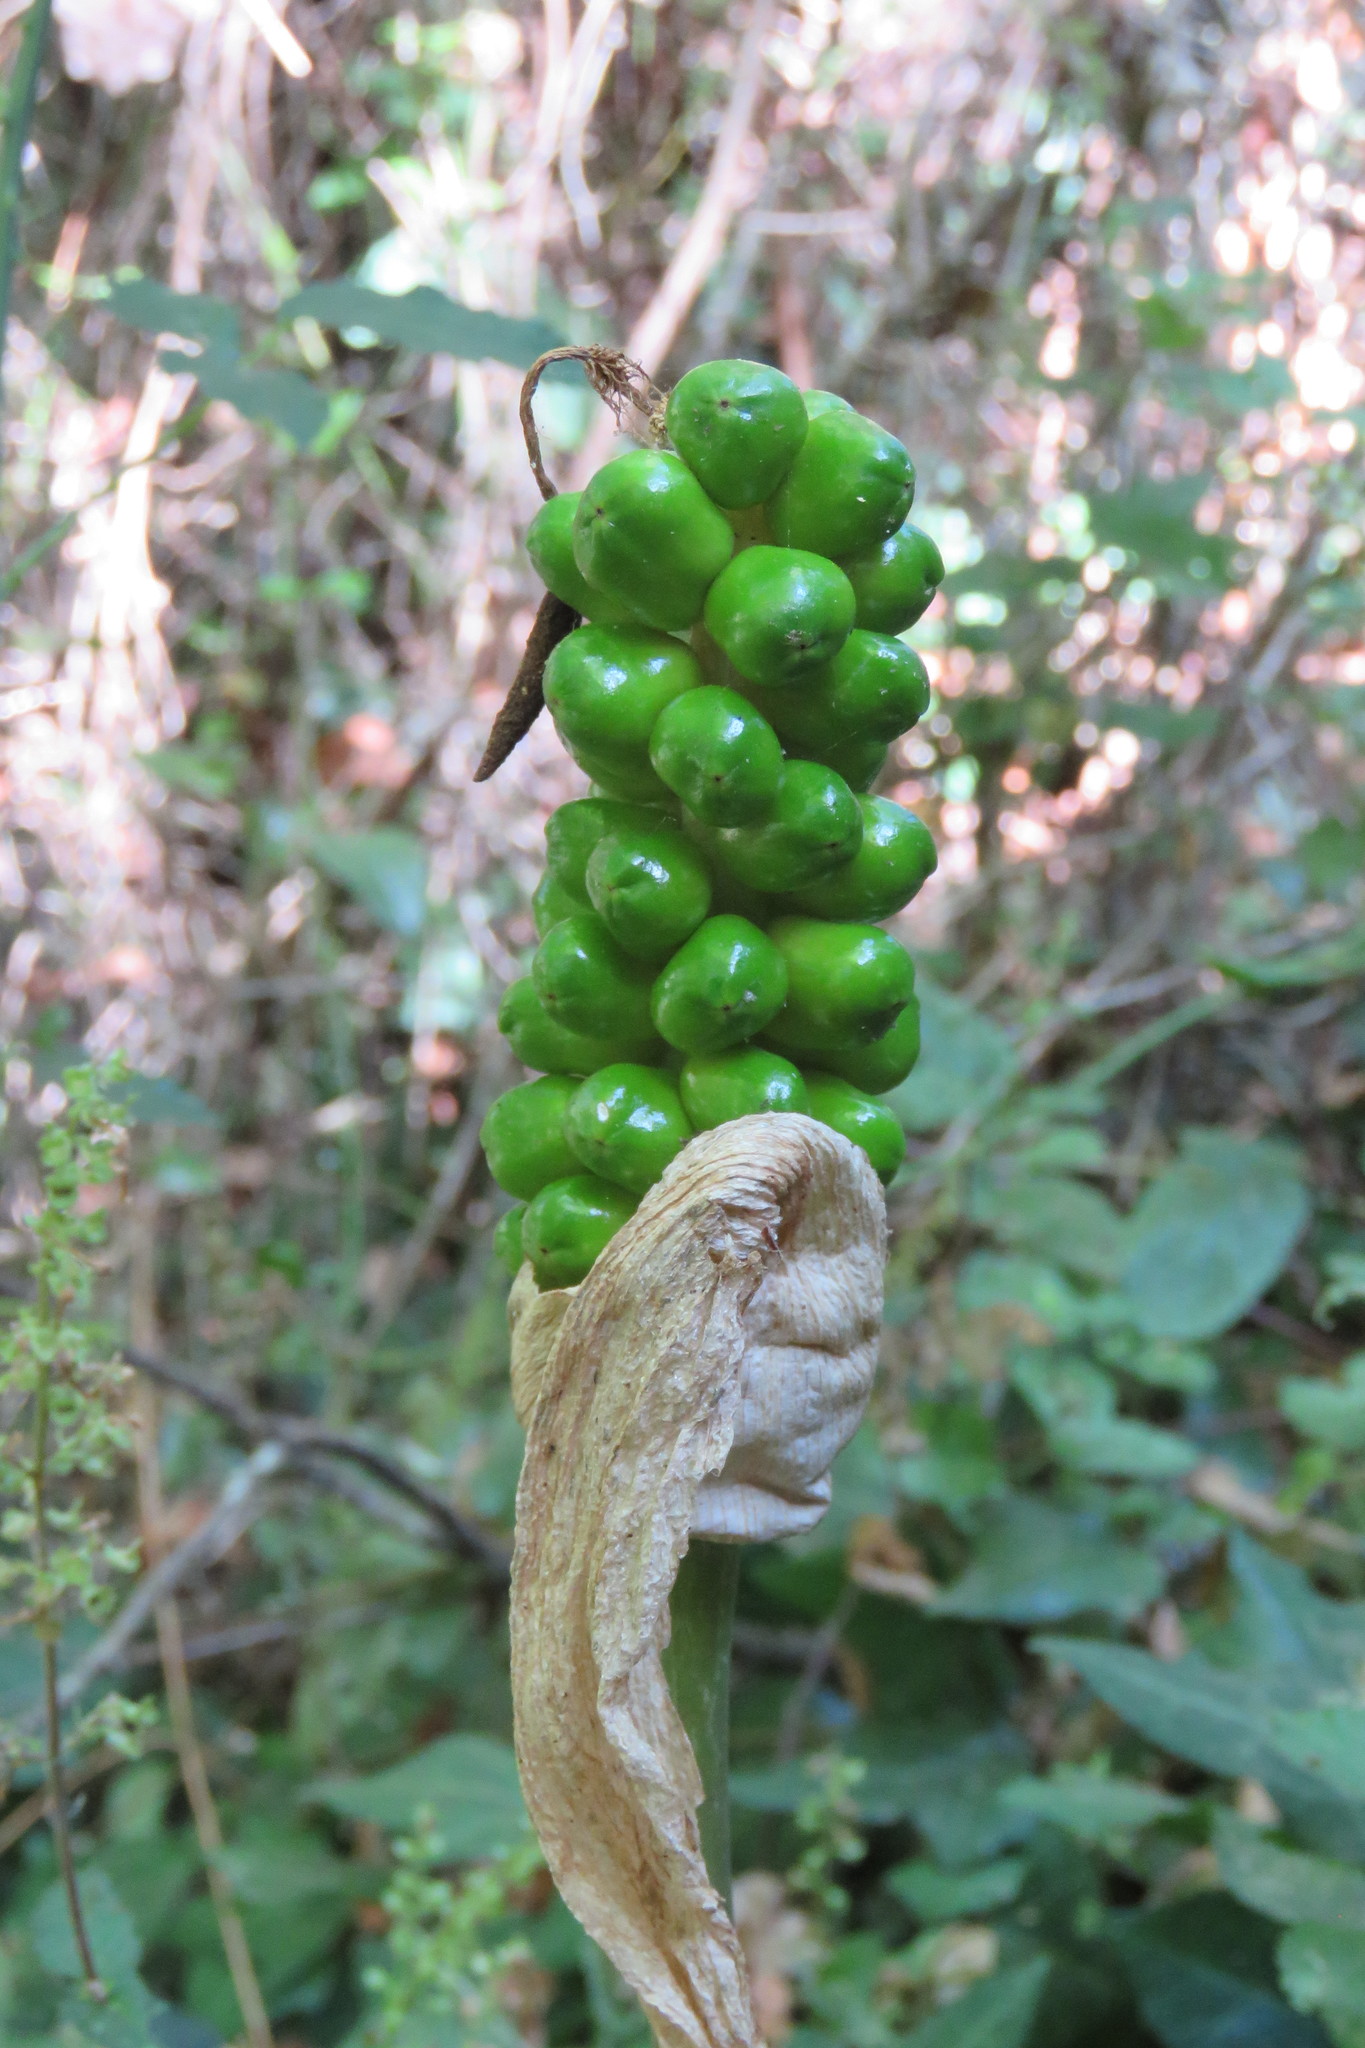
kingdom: Plantae
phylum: Tracheophyta
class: Liliopsida
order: Alismatales
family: Araceae
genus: Arum
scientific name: Arum italicum
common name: Italian lords-and-ladies
